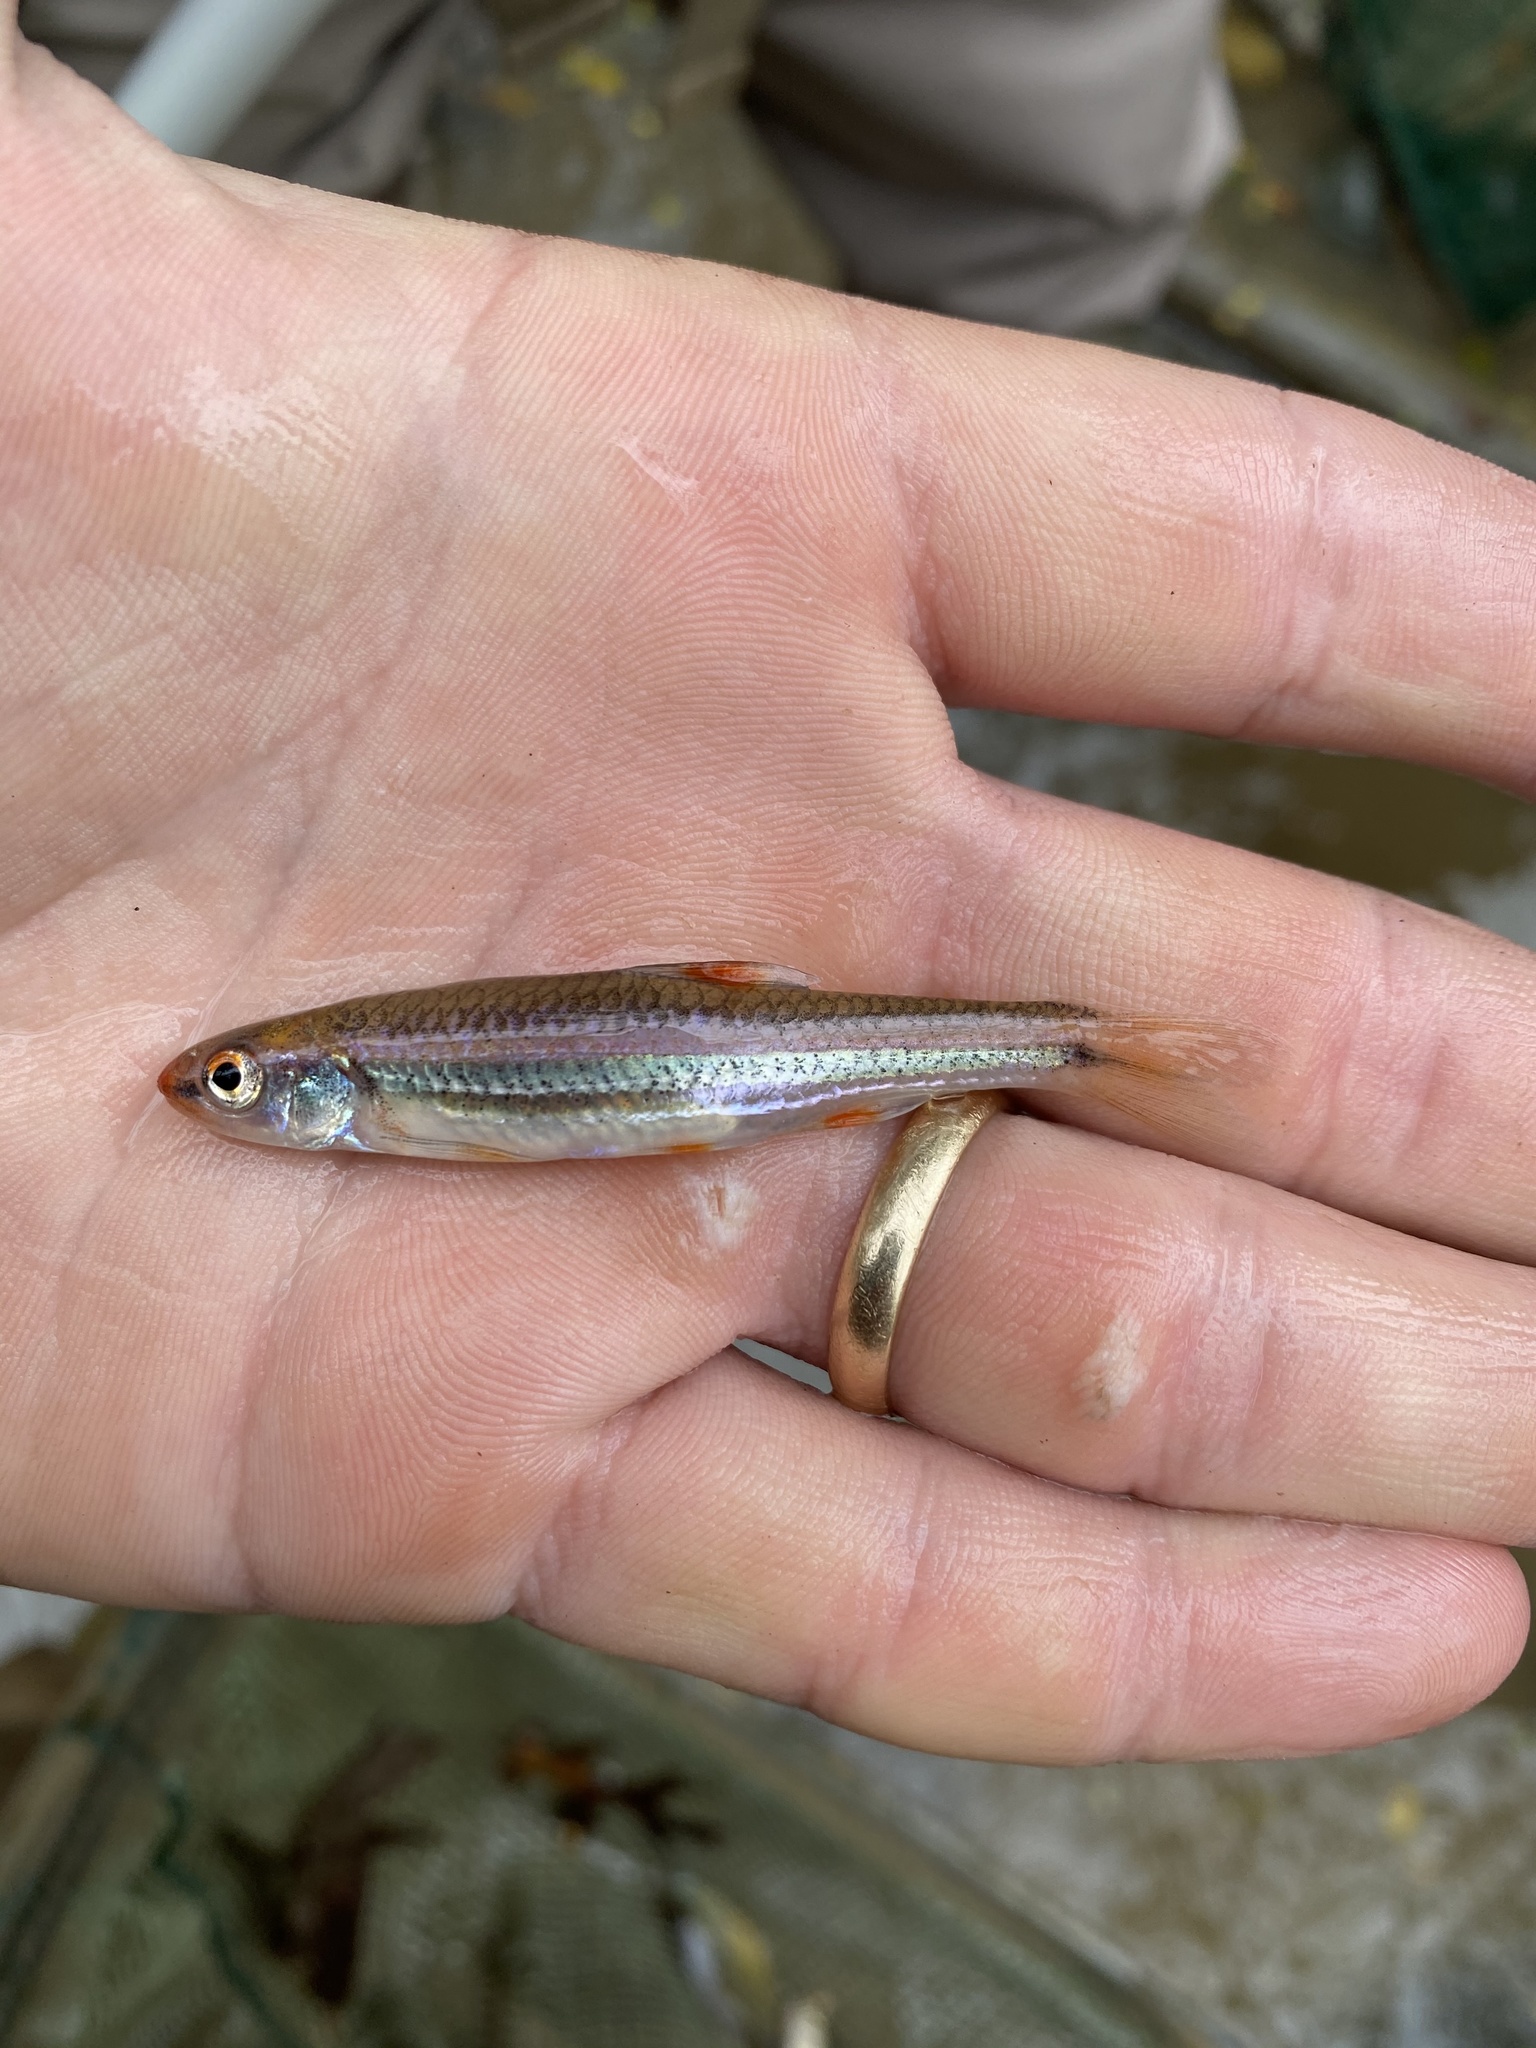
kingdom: Animalia
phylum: Chordata
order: Cypriniformes
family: Cyprinidae
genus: Notropis
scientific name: Notropis
